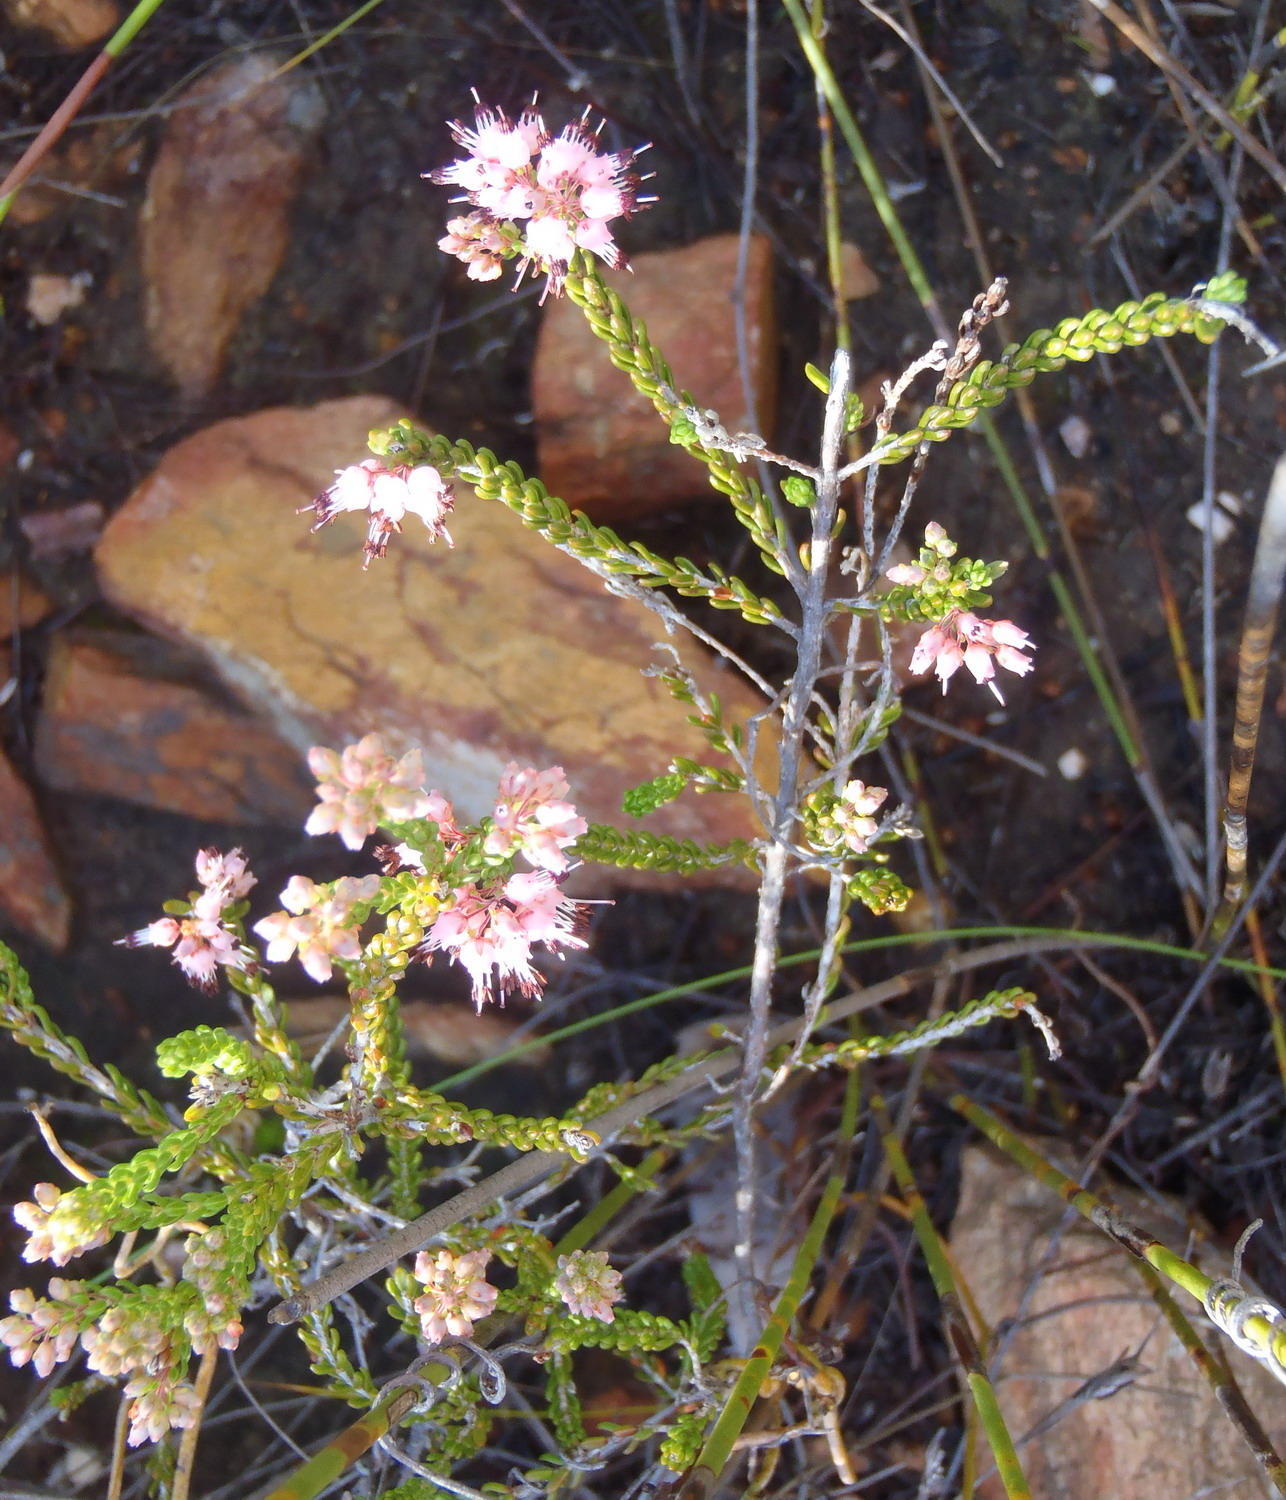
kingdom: Plantae
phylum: Tracheophyta
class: Magnoliopsida
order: Ericales
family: Ericaceae
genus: Erica
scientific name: Erica petraea
